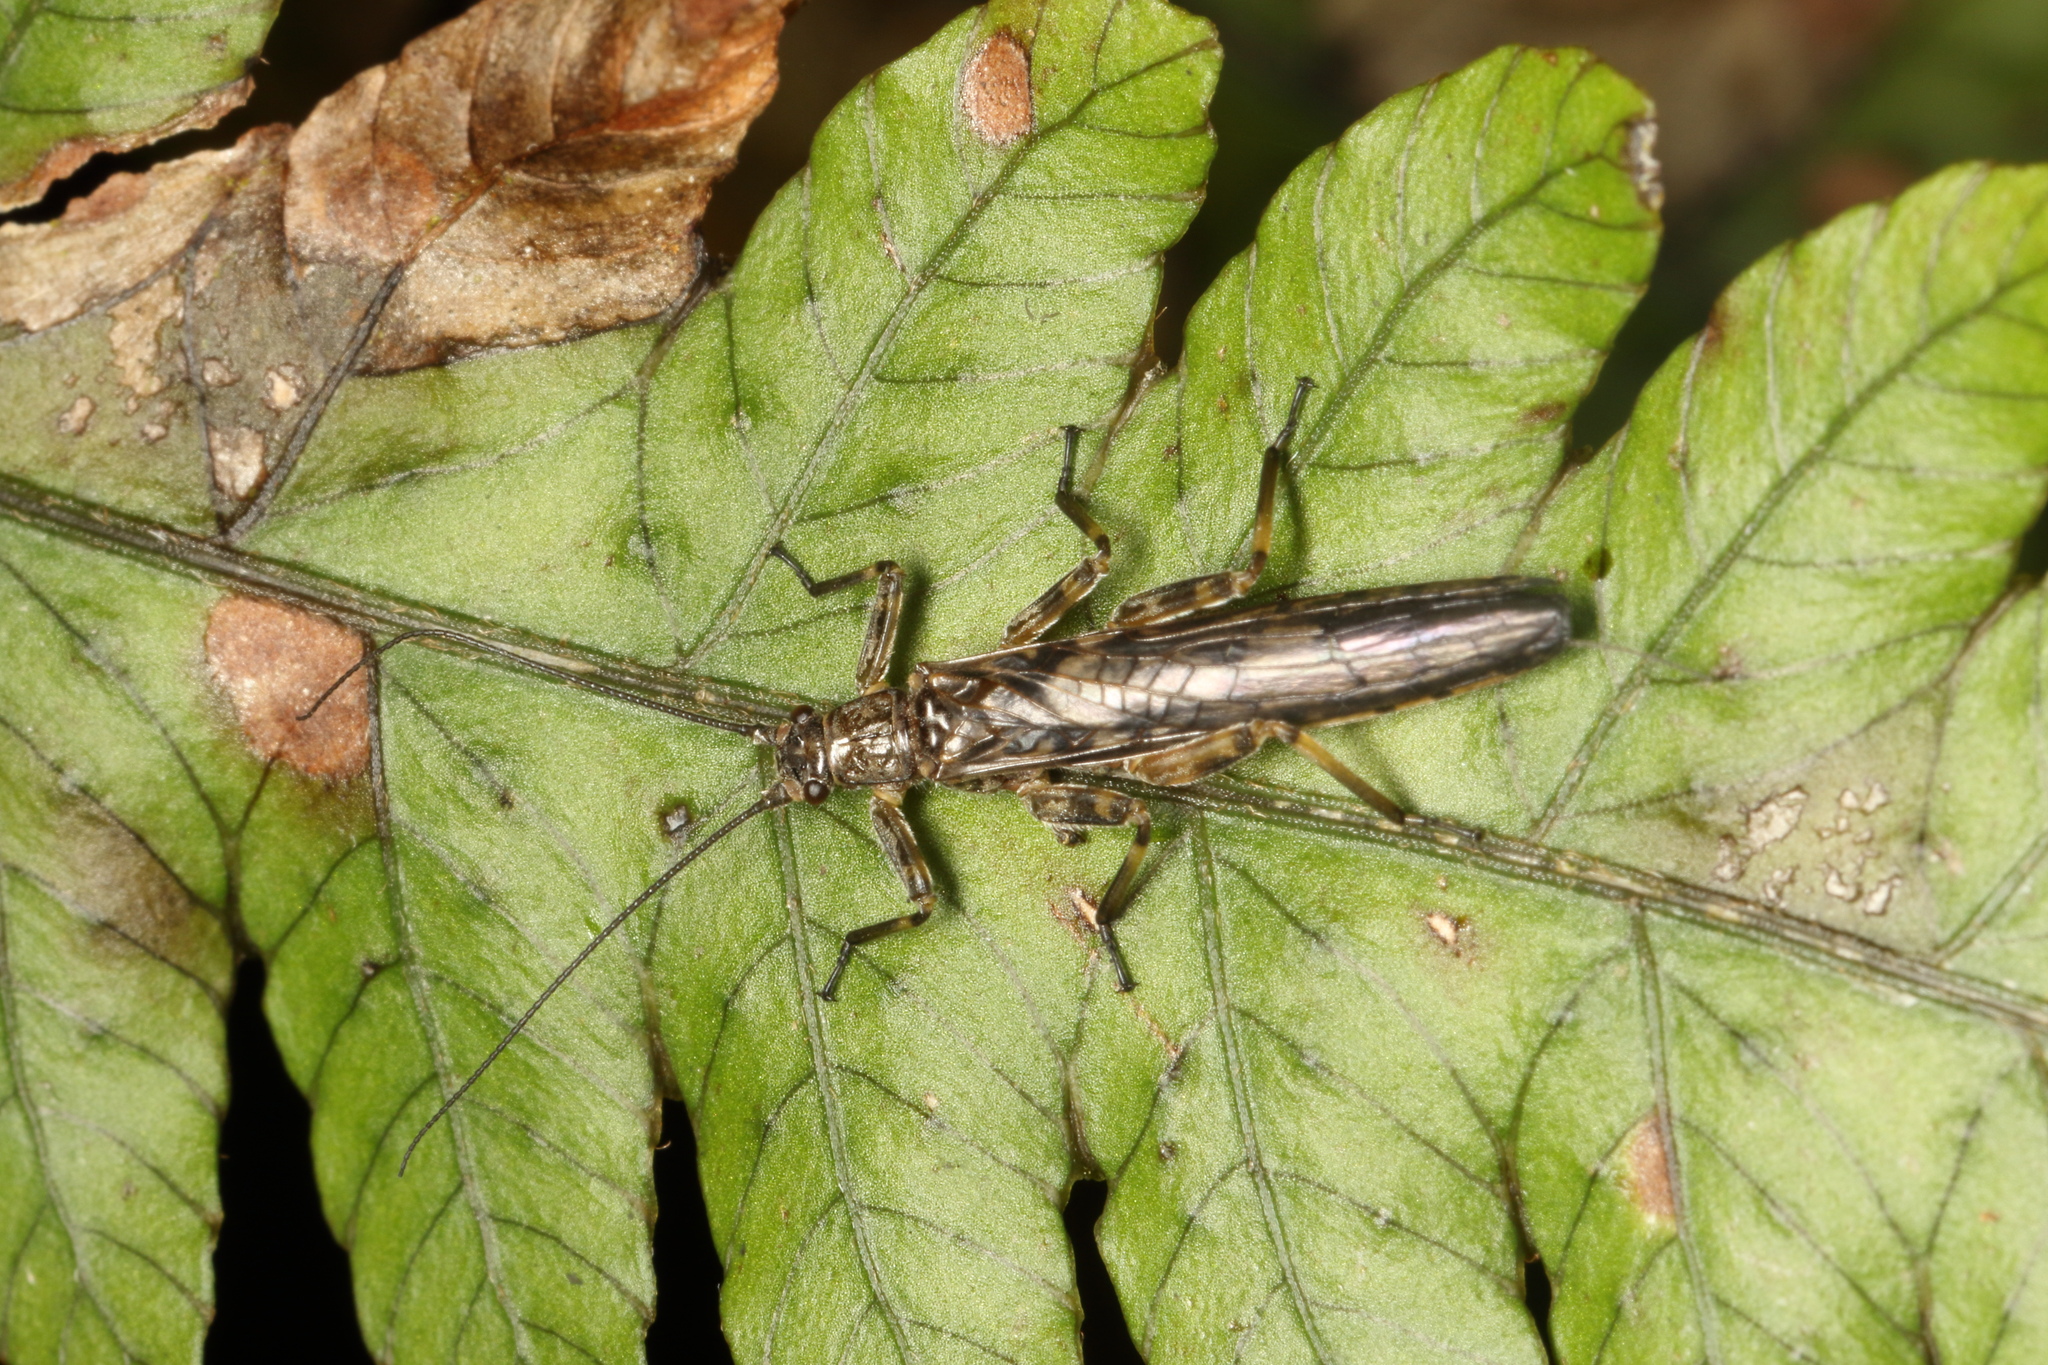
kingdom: Animalia
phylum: Arthropoda
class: Insecta
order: Plecoptera
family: Gripopterygidae
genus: Zelandoperla
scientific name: Zelandoperla decorata
